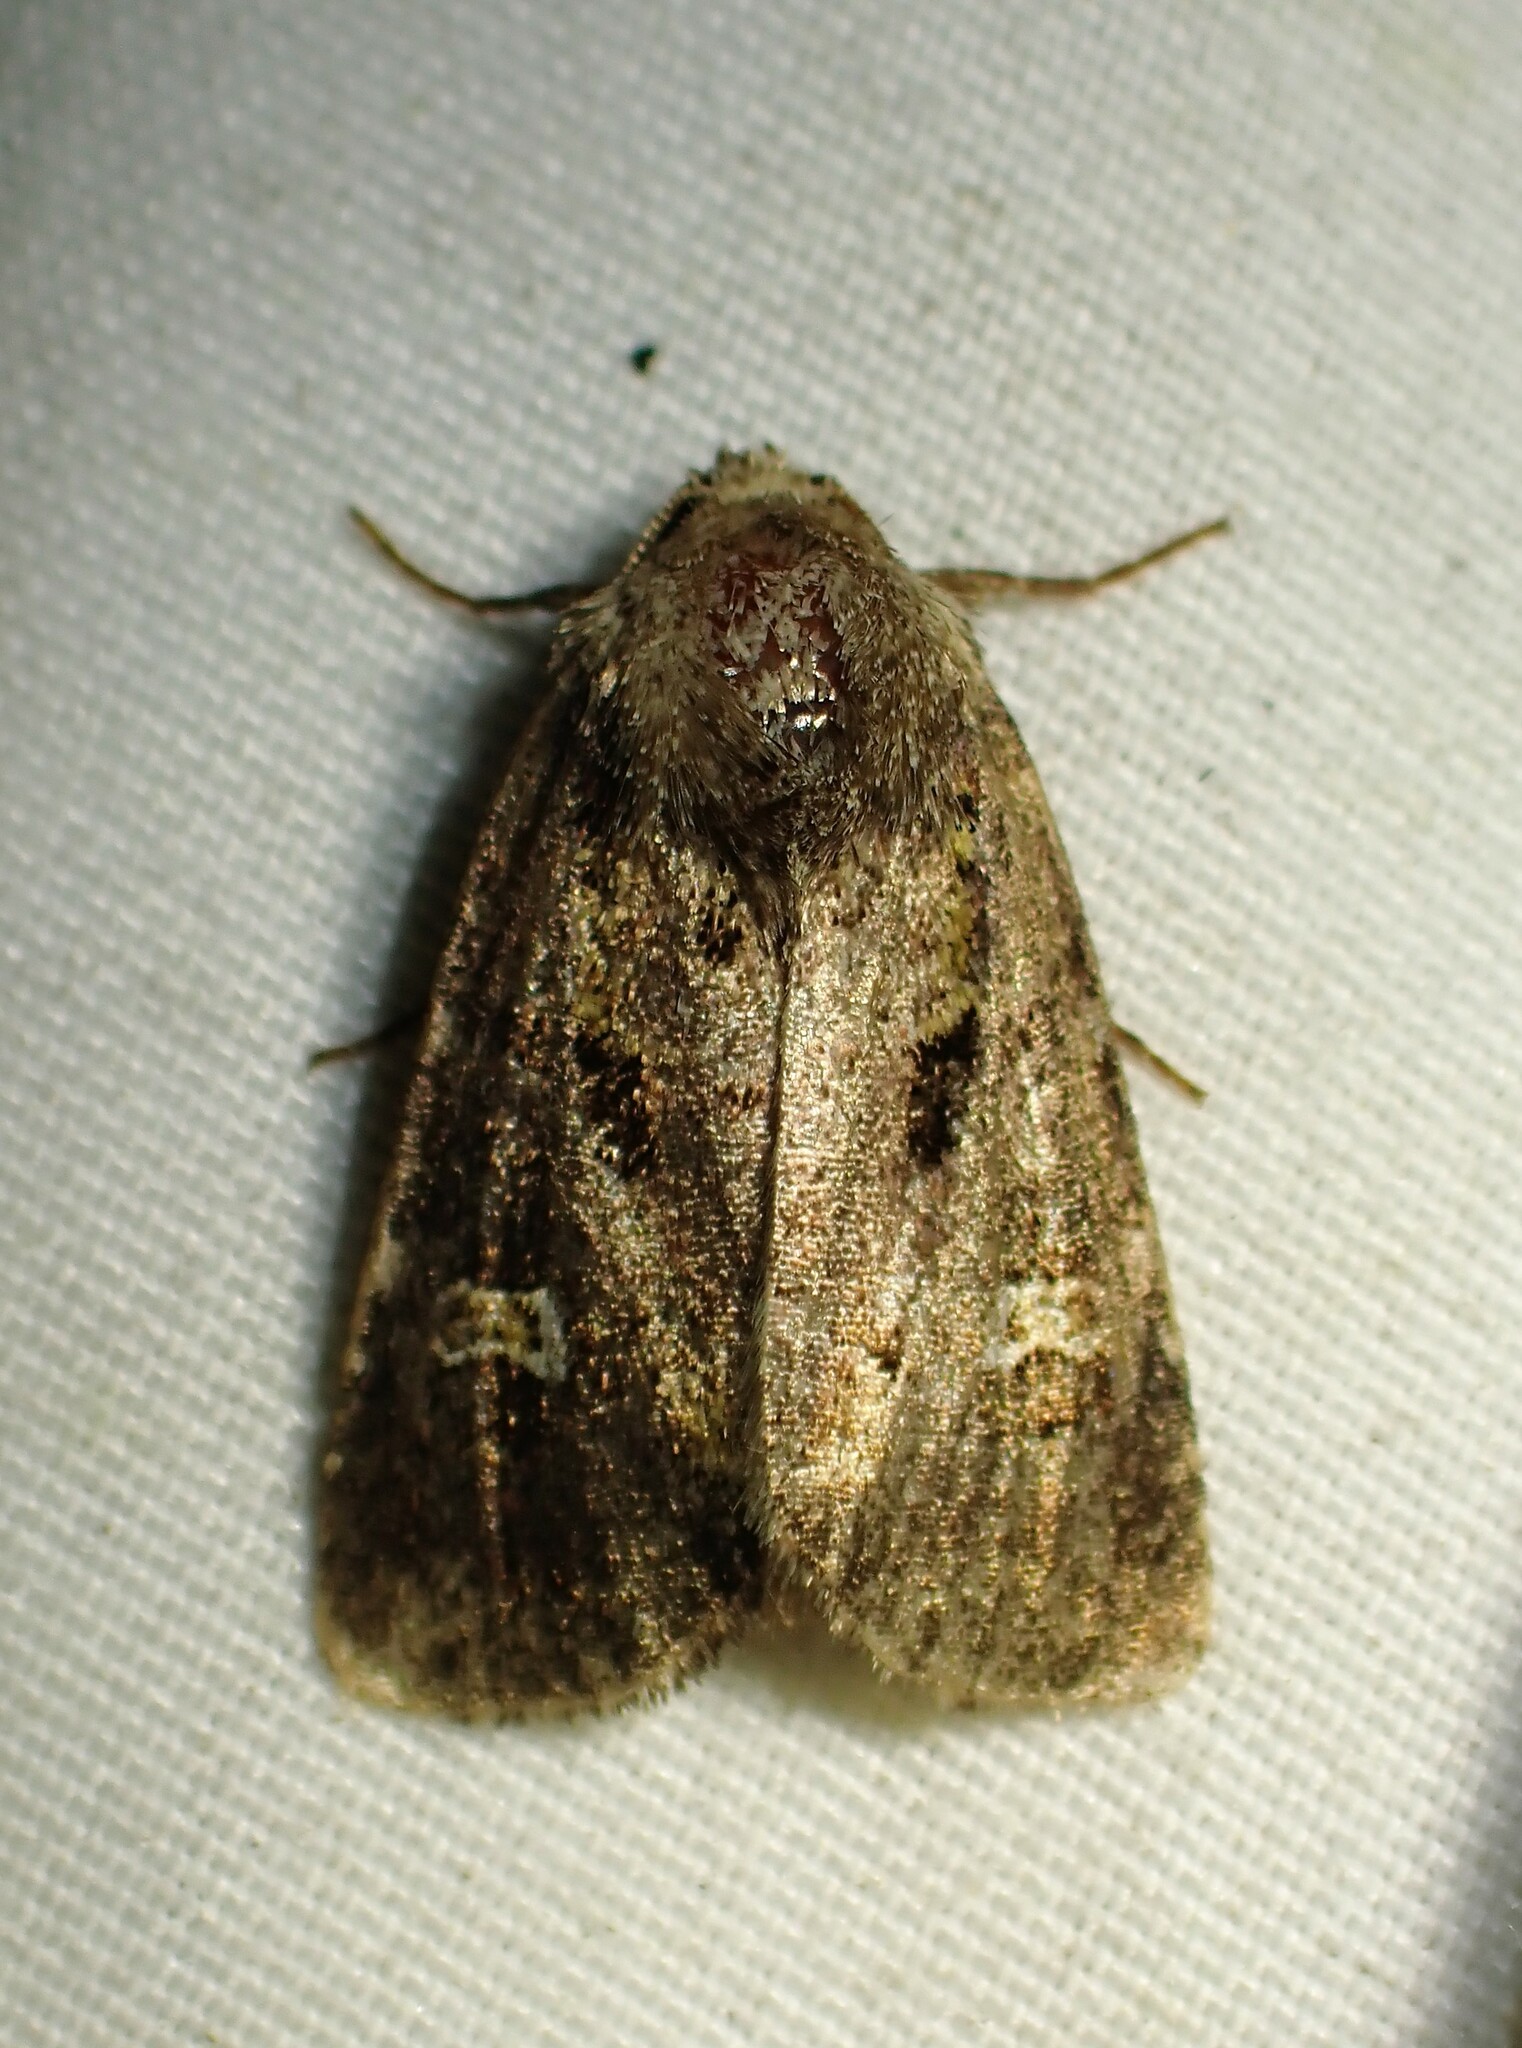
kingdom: Animalia
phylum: Arthropoda
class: Insecta
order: Lepidoptera
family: Noctuidae
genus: Lacinipolia
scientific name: Lacinipolia renigera
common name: Kidney-spotted minor
